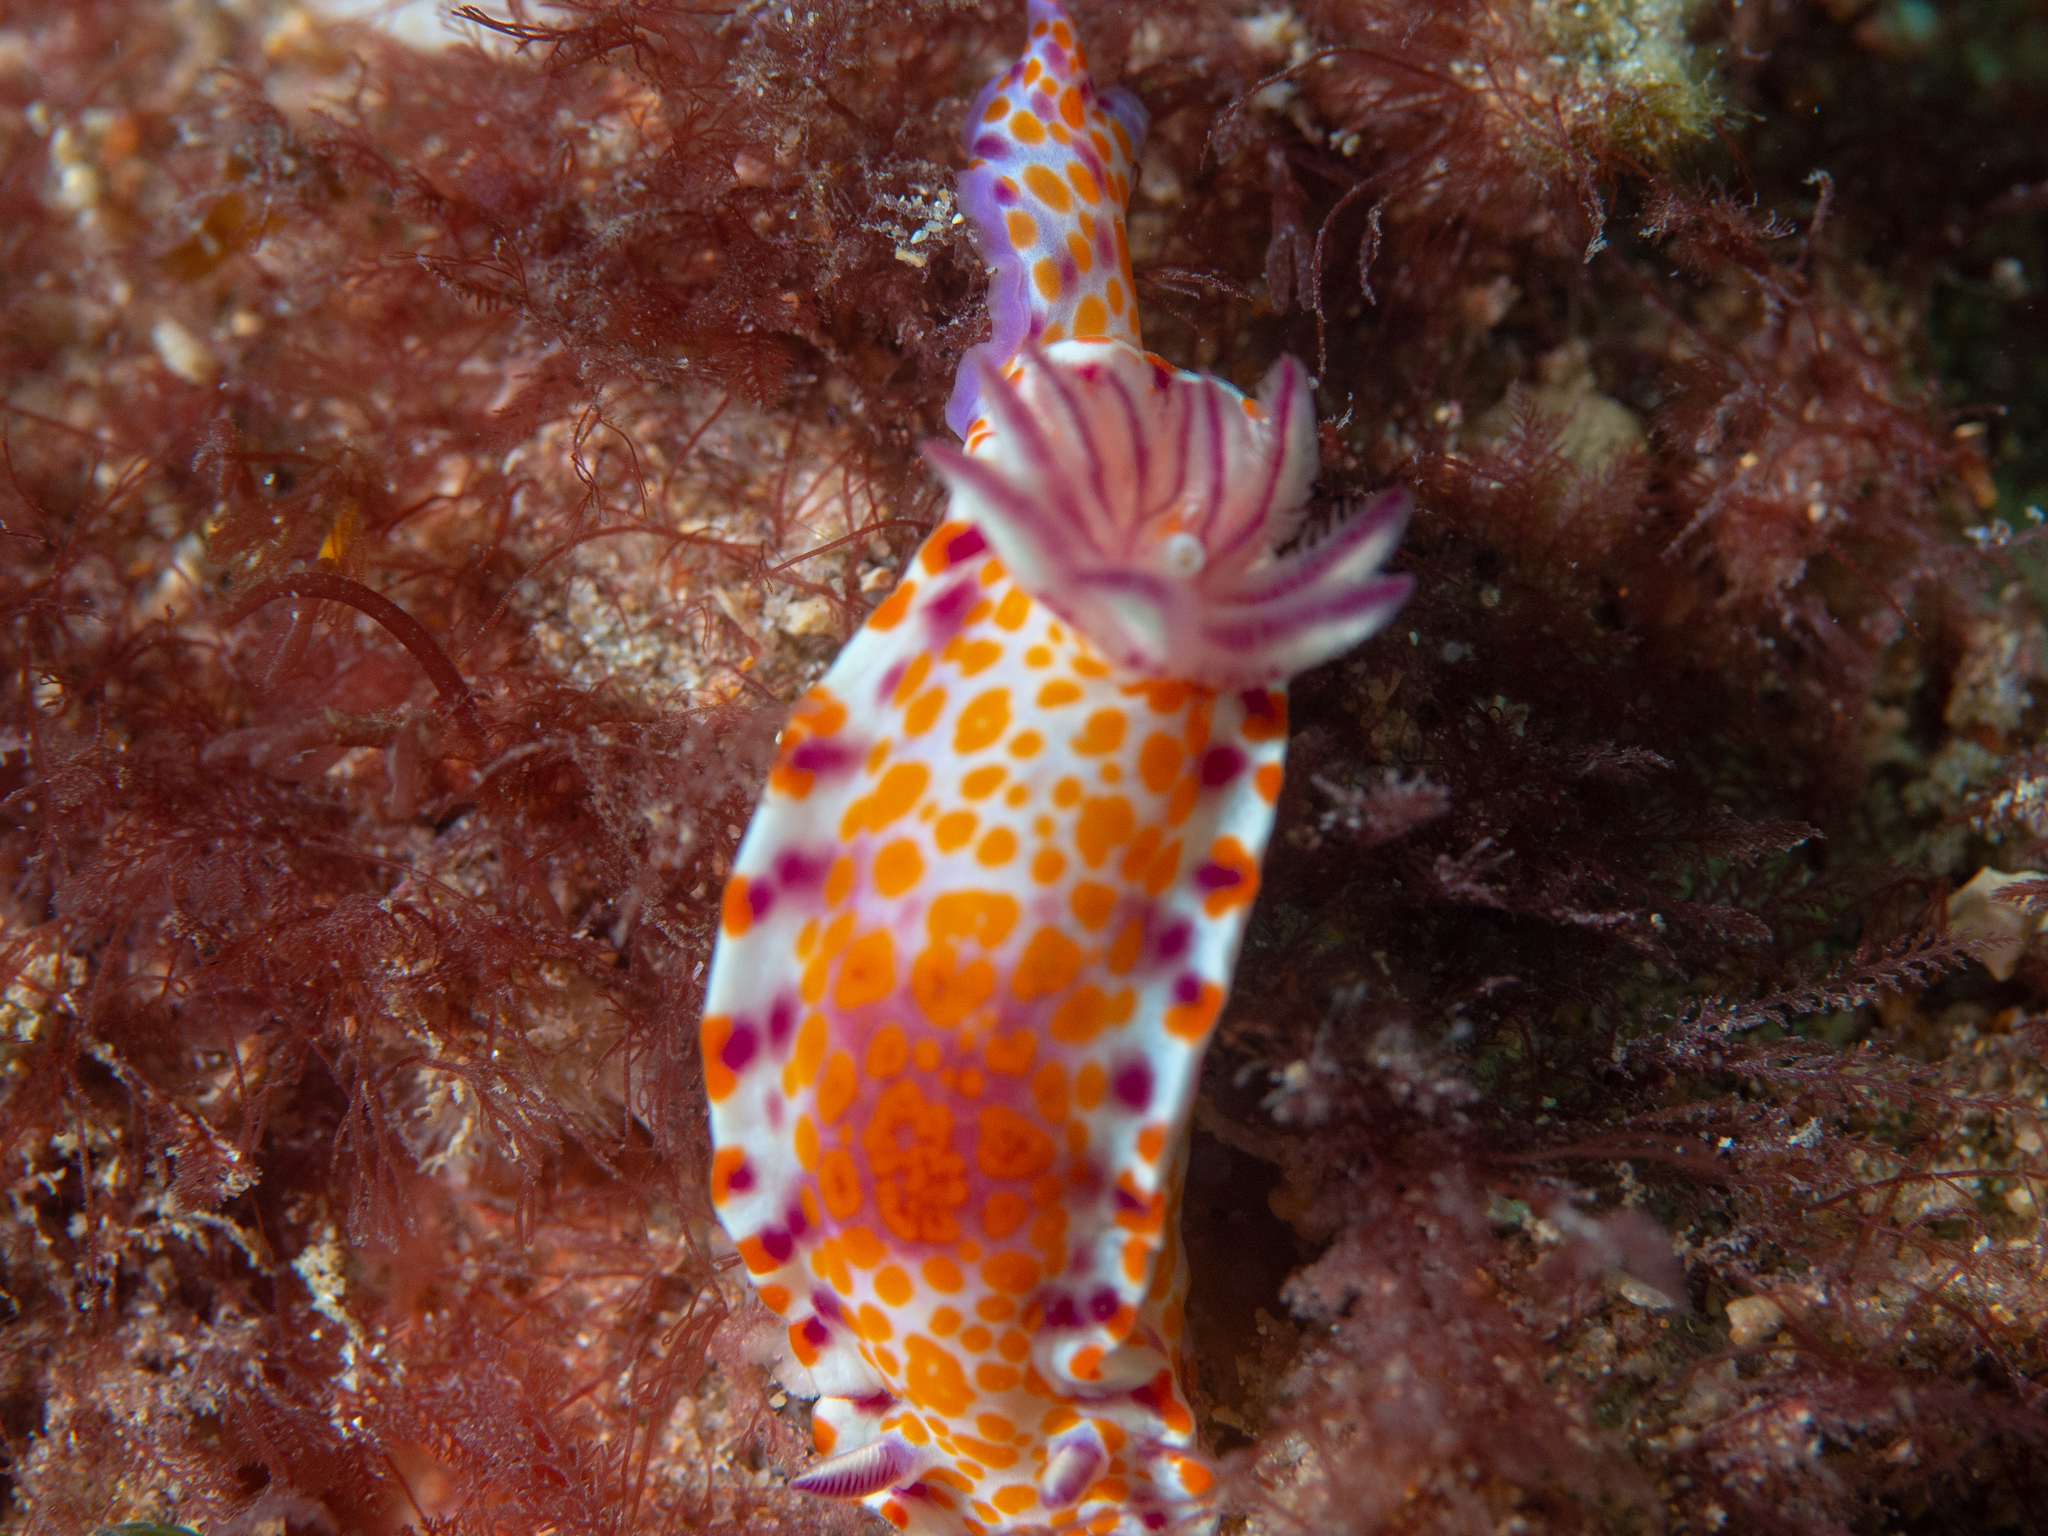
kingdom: Animalia
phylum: Mollusca
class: Gastropoda
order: Nudibranchia
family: Chromodorididae
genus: Ceratosoma
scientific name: Ceratosoma amoenum
